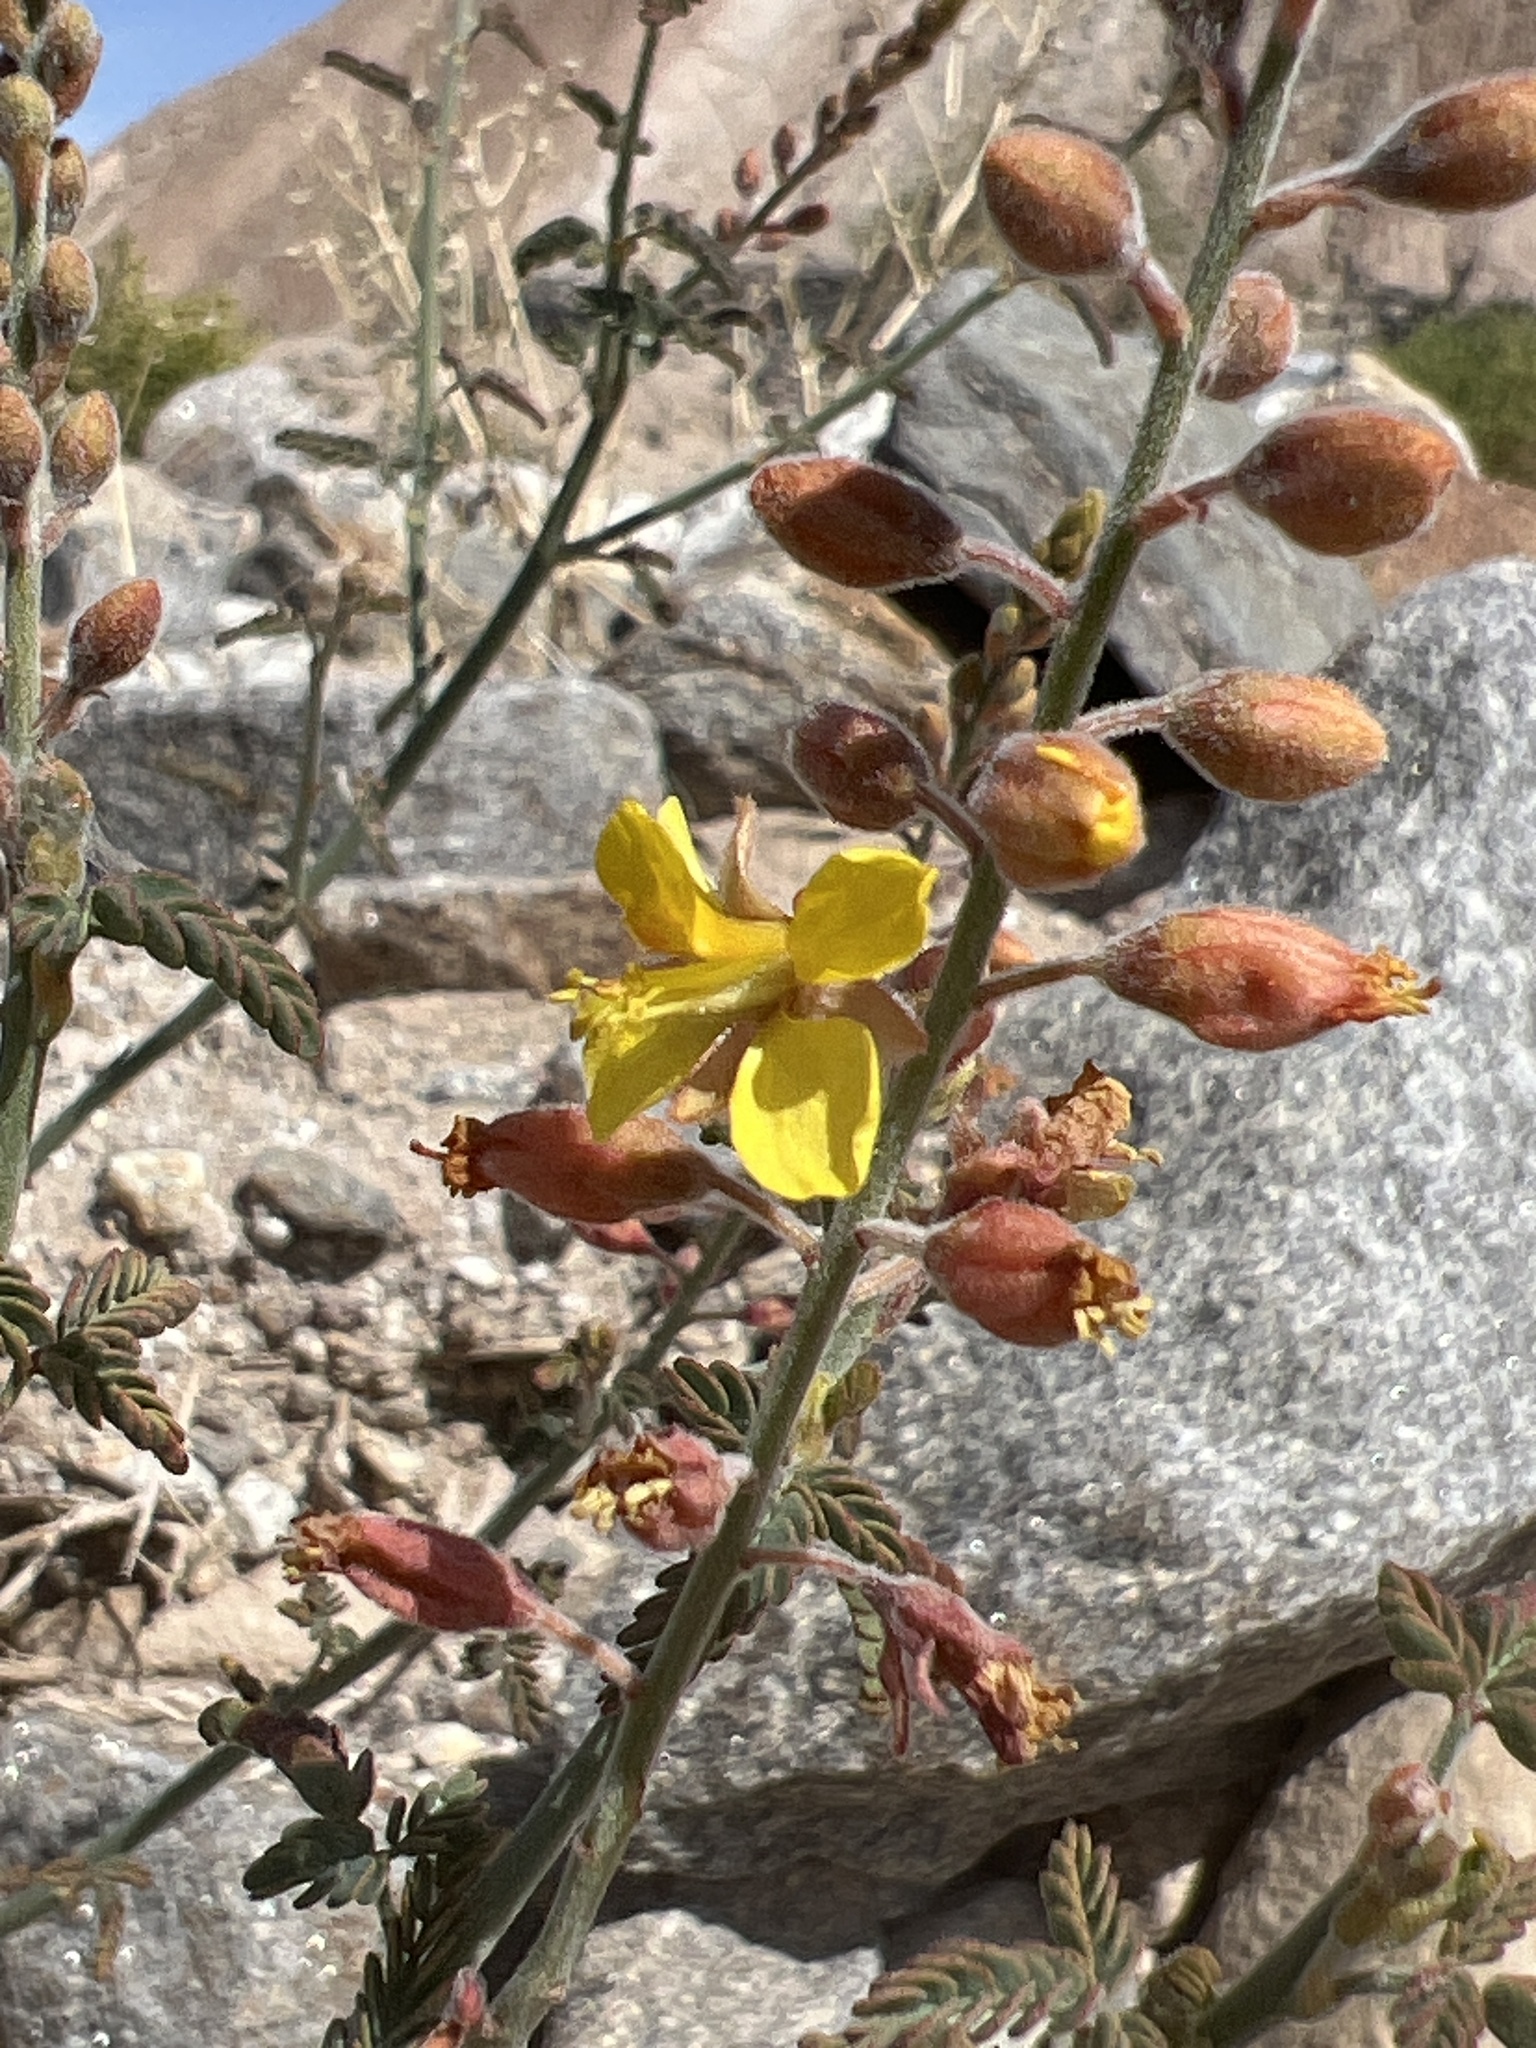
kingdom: Plantae
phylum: Tracheophyta
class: Magnoliopsida
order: Fabales
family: Fabaceae
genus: Hoffmannseggia
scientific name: Hoffmannseggia microphylla
